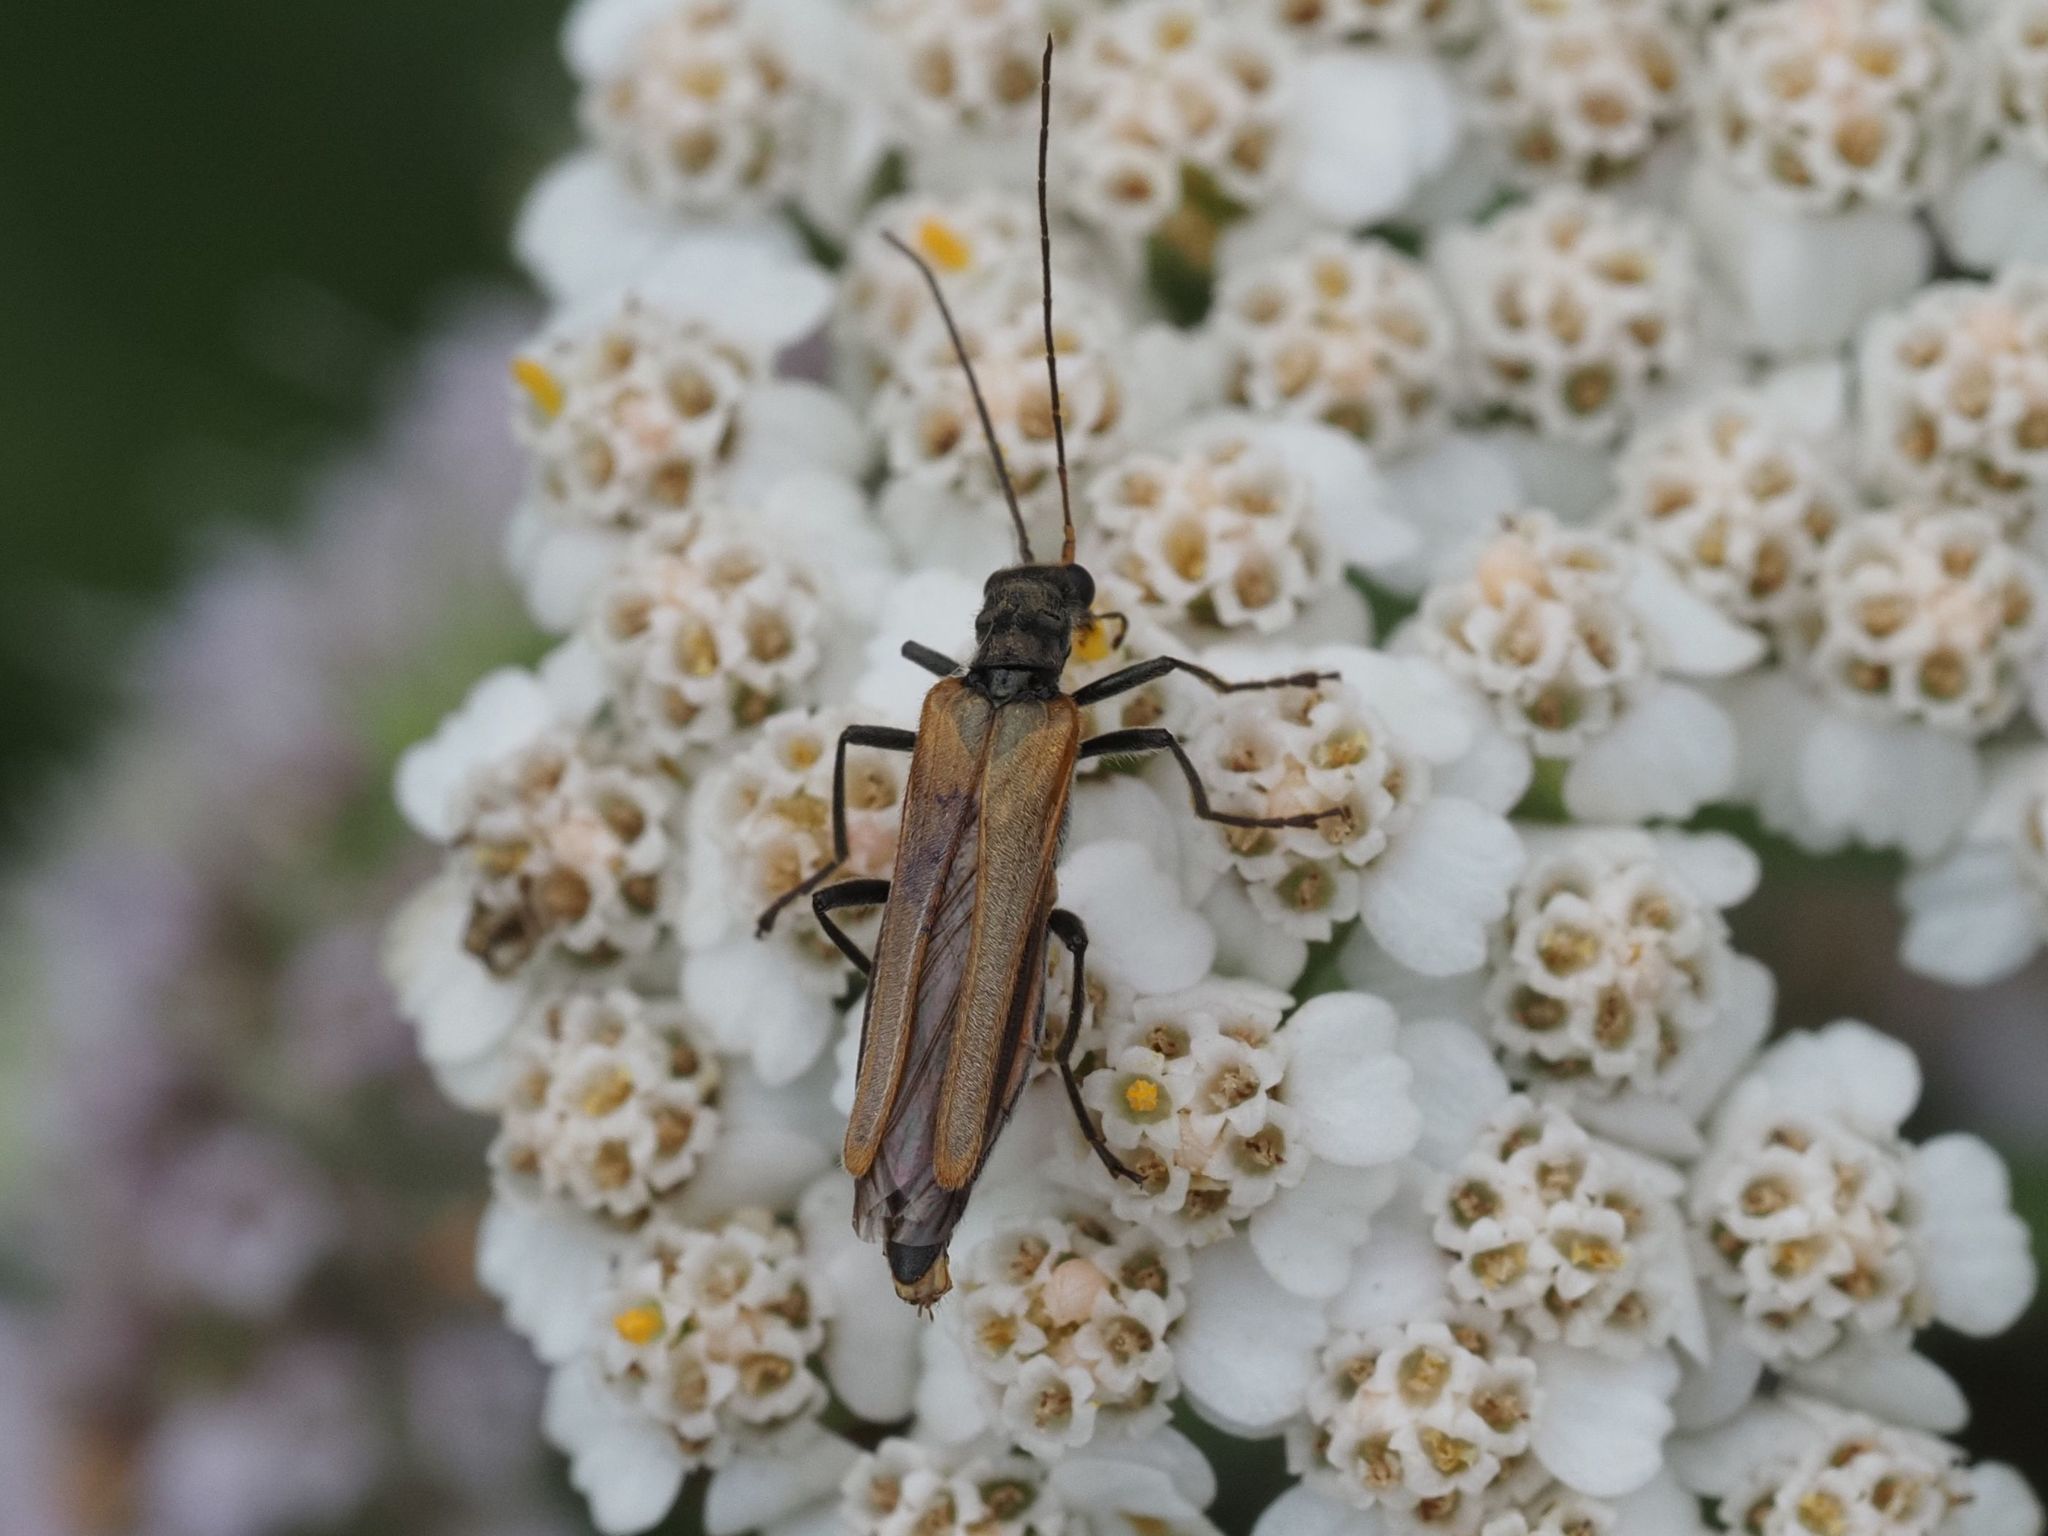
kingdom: Animalia
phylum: Arthropoda
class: Insecta
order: Coleoptera
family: Oedemeridae
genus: Oedemera
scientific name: Oedemera femorata
